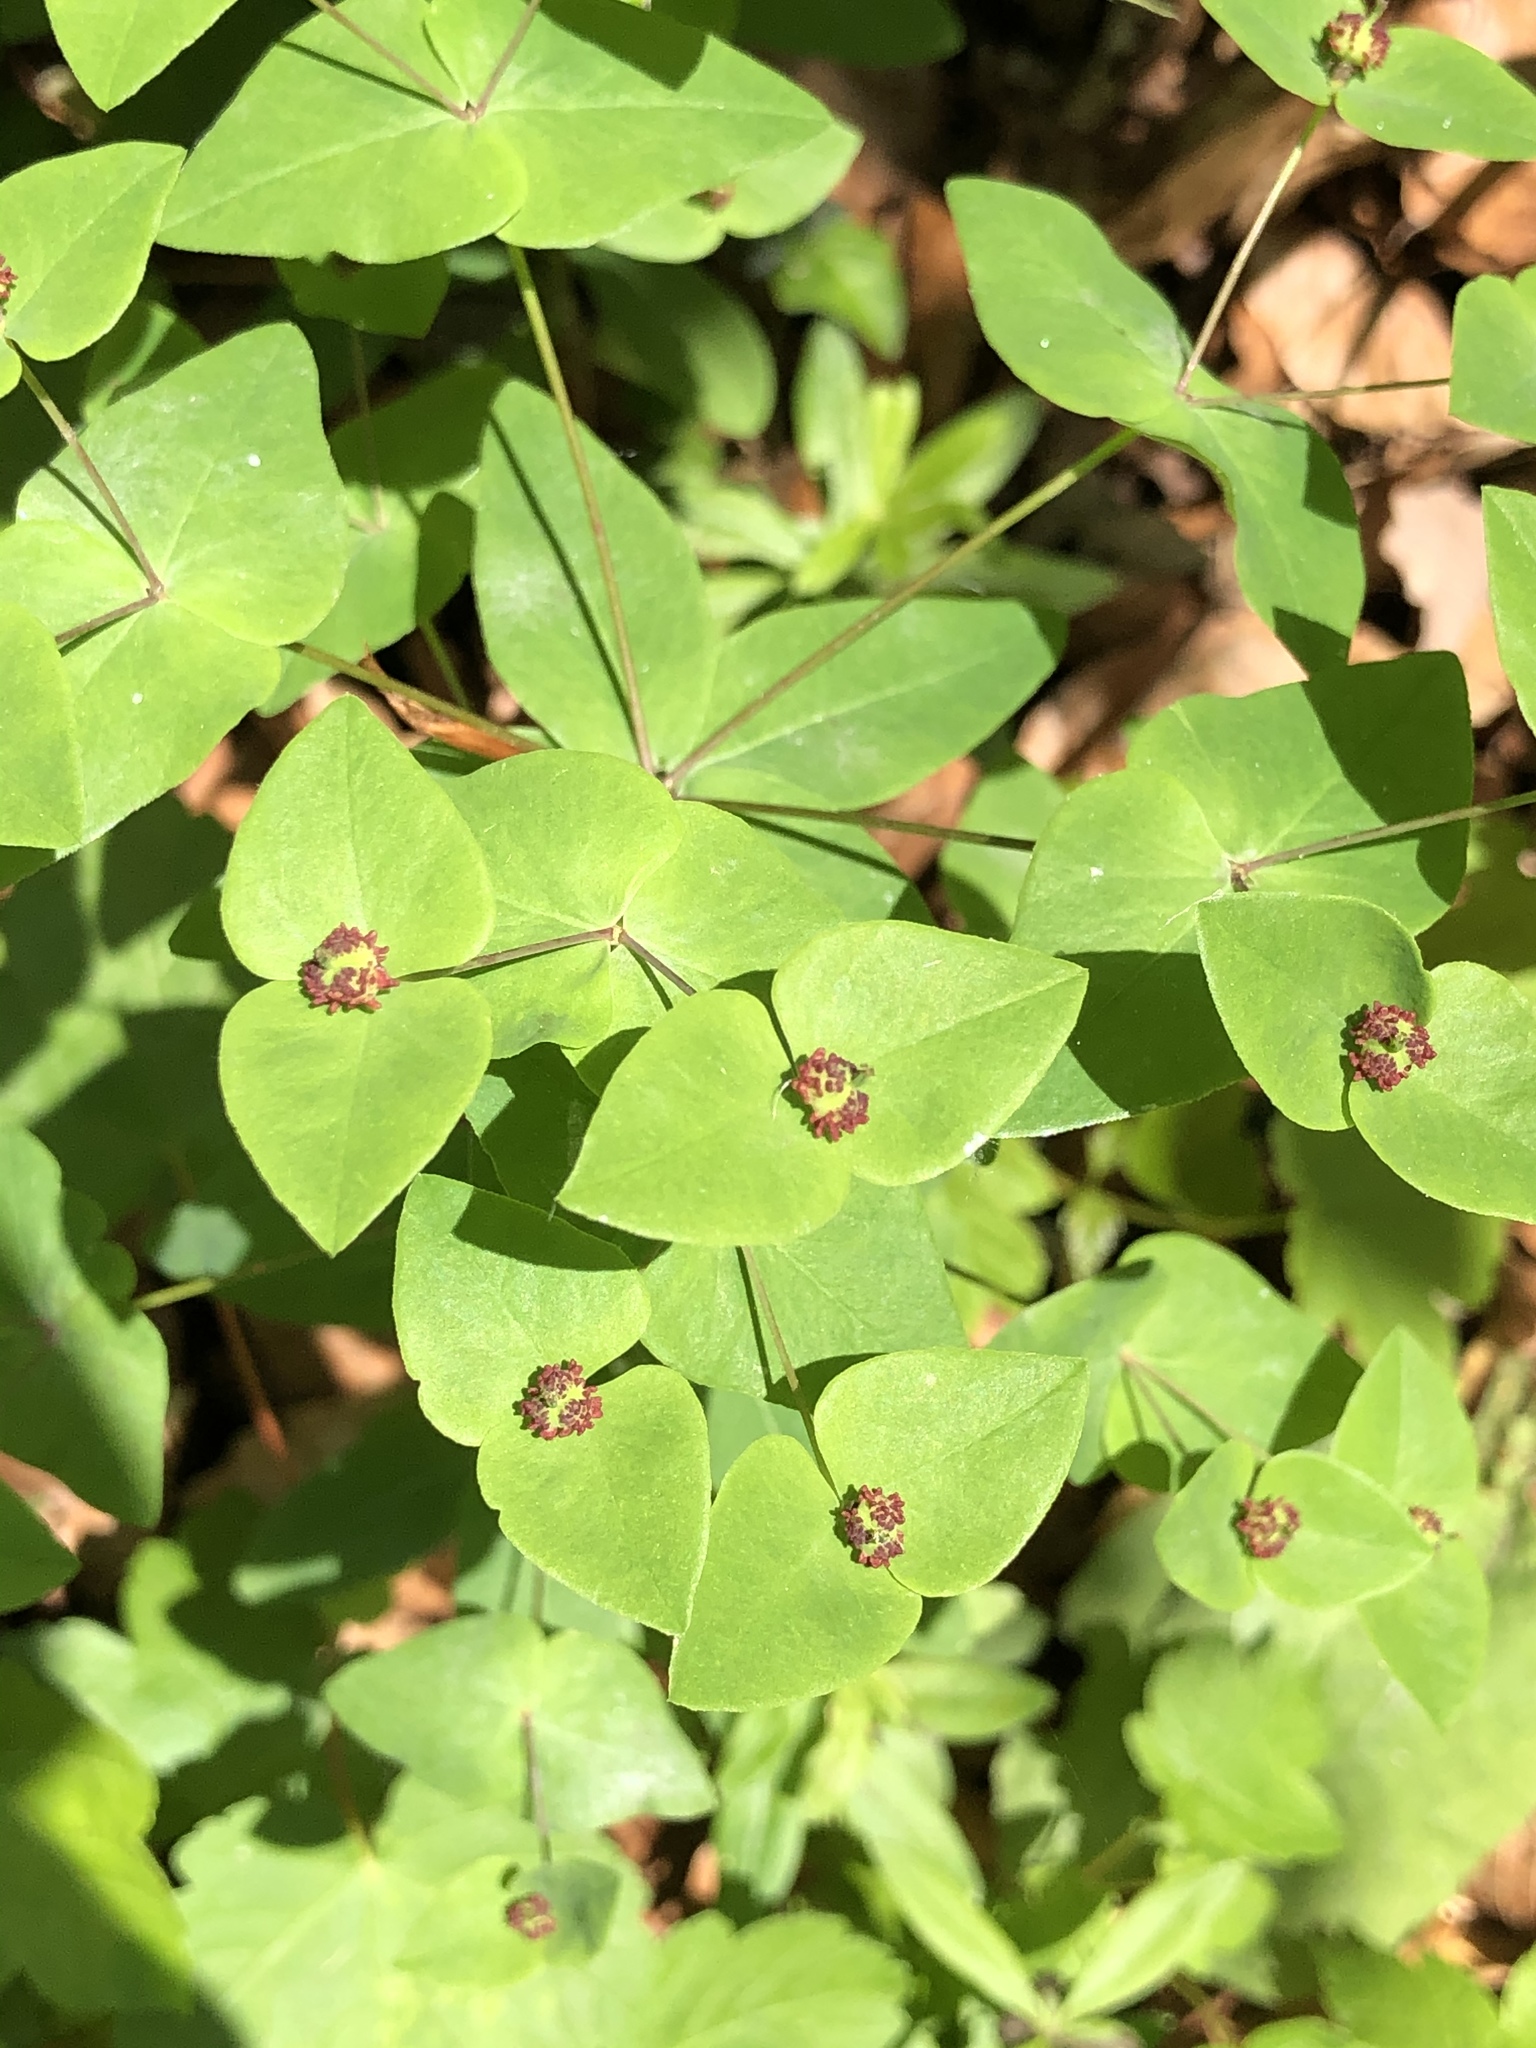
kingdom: Plantae
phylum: Tracheophyta
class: Magnoliopsida
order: Malpighiales
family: Euphorbiaceae
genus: Euphorbia
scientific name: Euphorbia dulcis
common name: Sweet spurge
